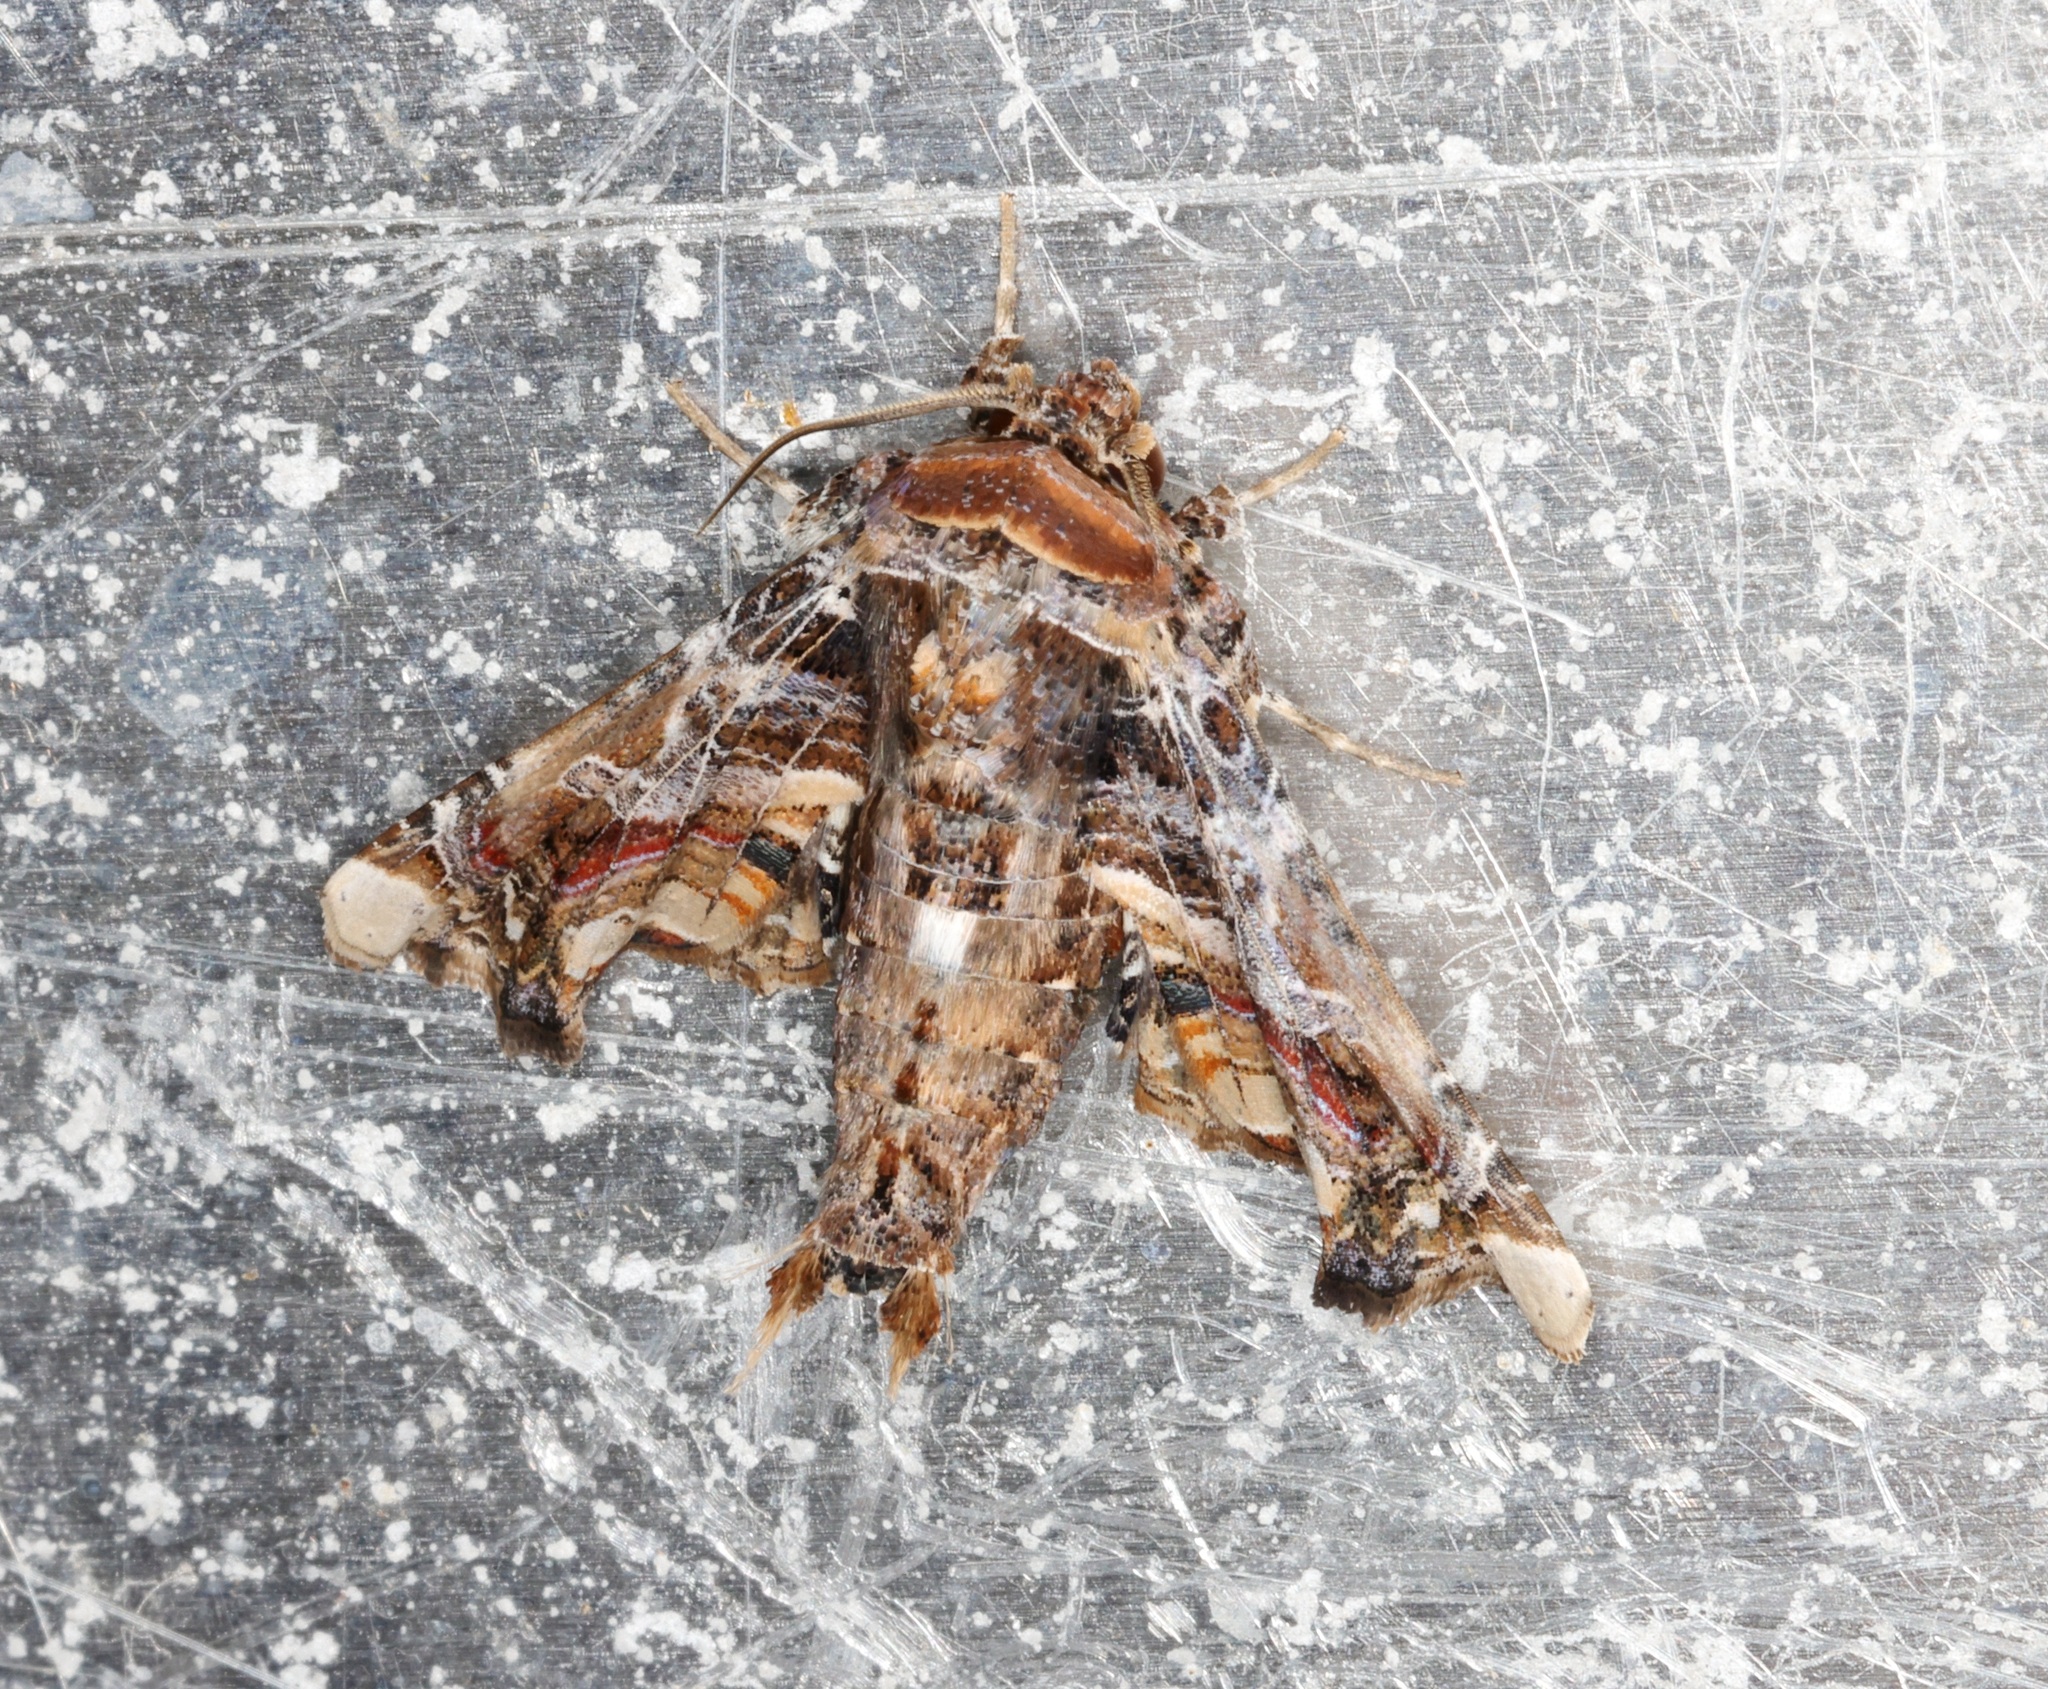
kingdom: Animalia
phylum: Arthropoda
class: Insecta
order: Lepidoptera
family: Euteliidae
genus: Eutelia
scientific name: Eutelia adulatricoides
